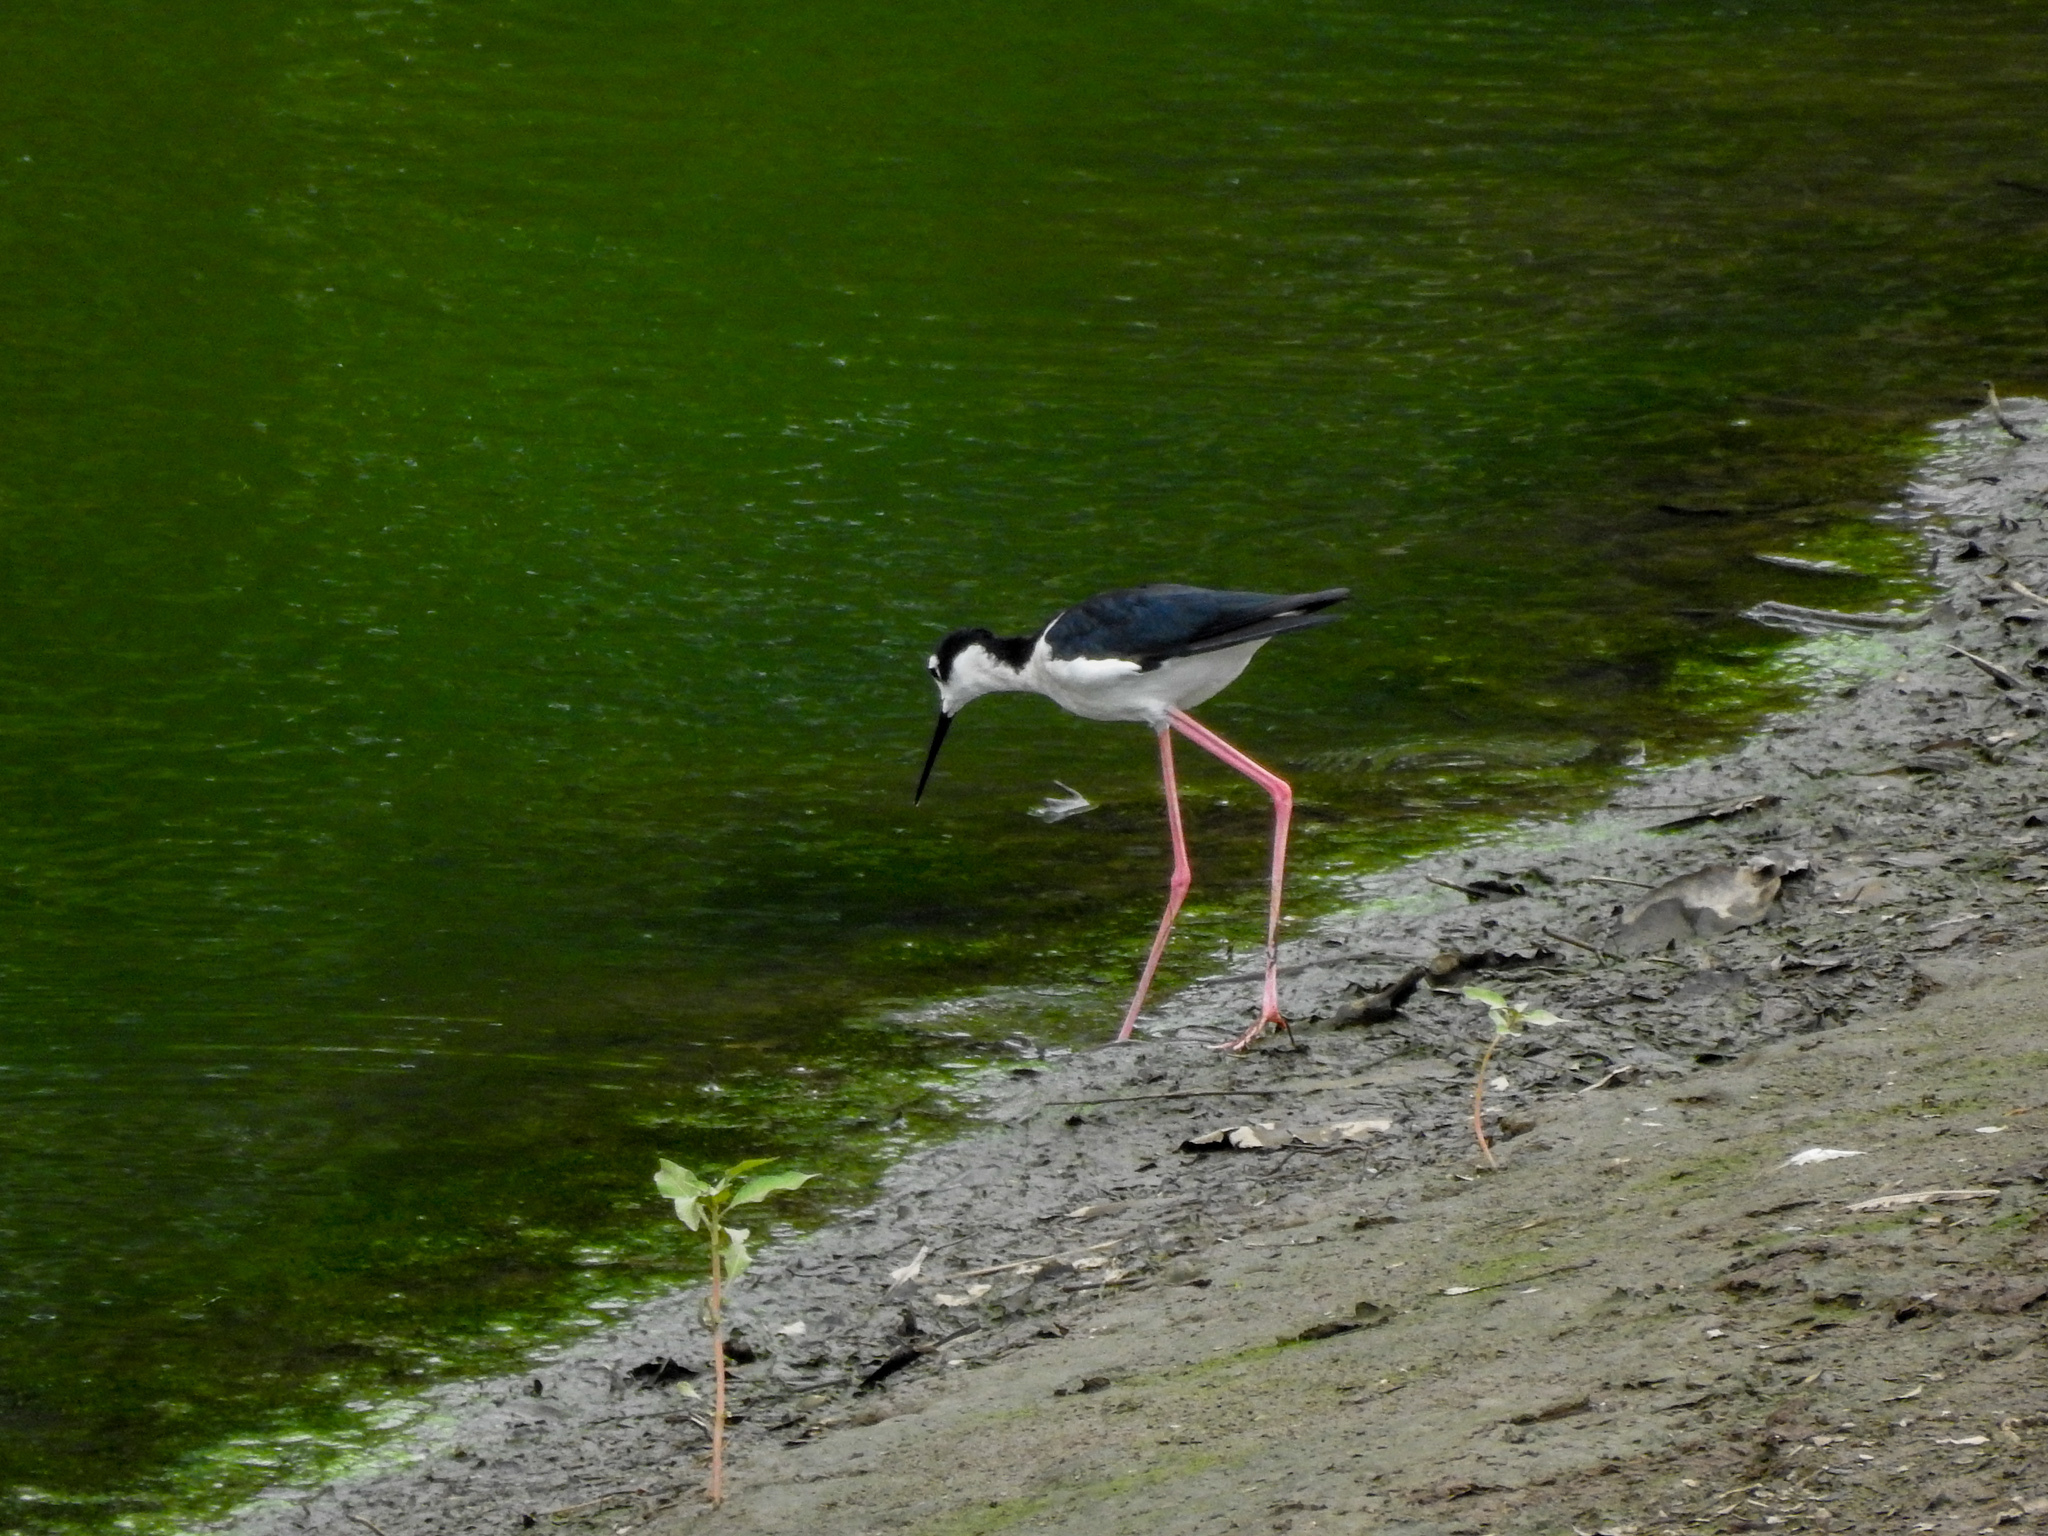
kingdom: Animalia
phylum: Chordata
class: Aves
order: Charadriiformes
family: Recurvirostridae
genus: Himantopus
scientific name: Himantopus mexicanus
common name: Black-necked stilt
